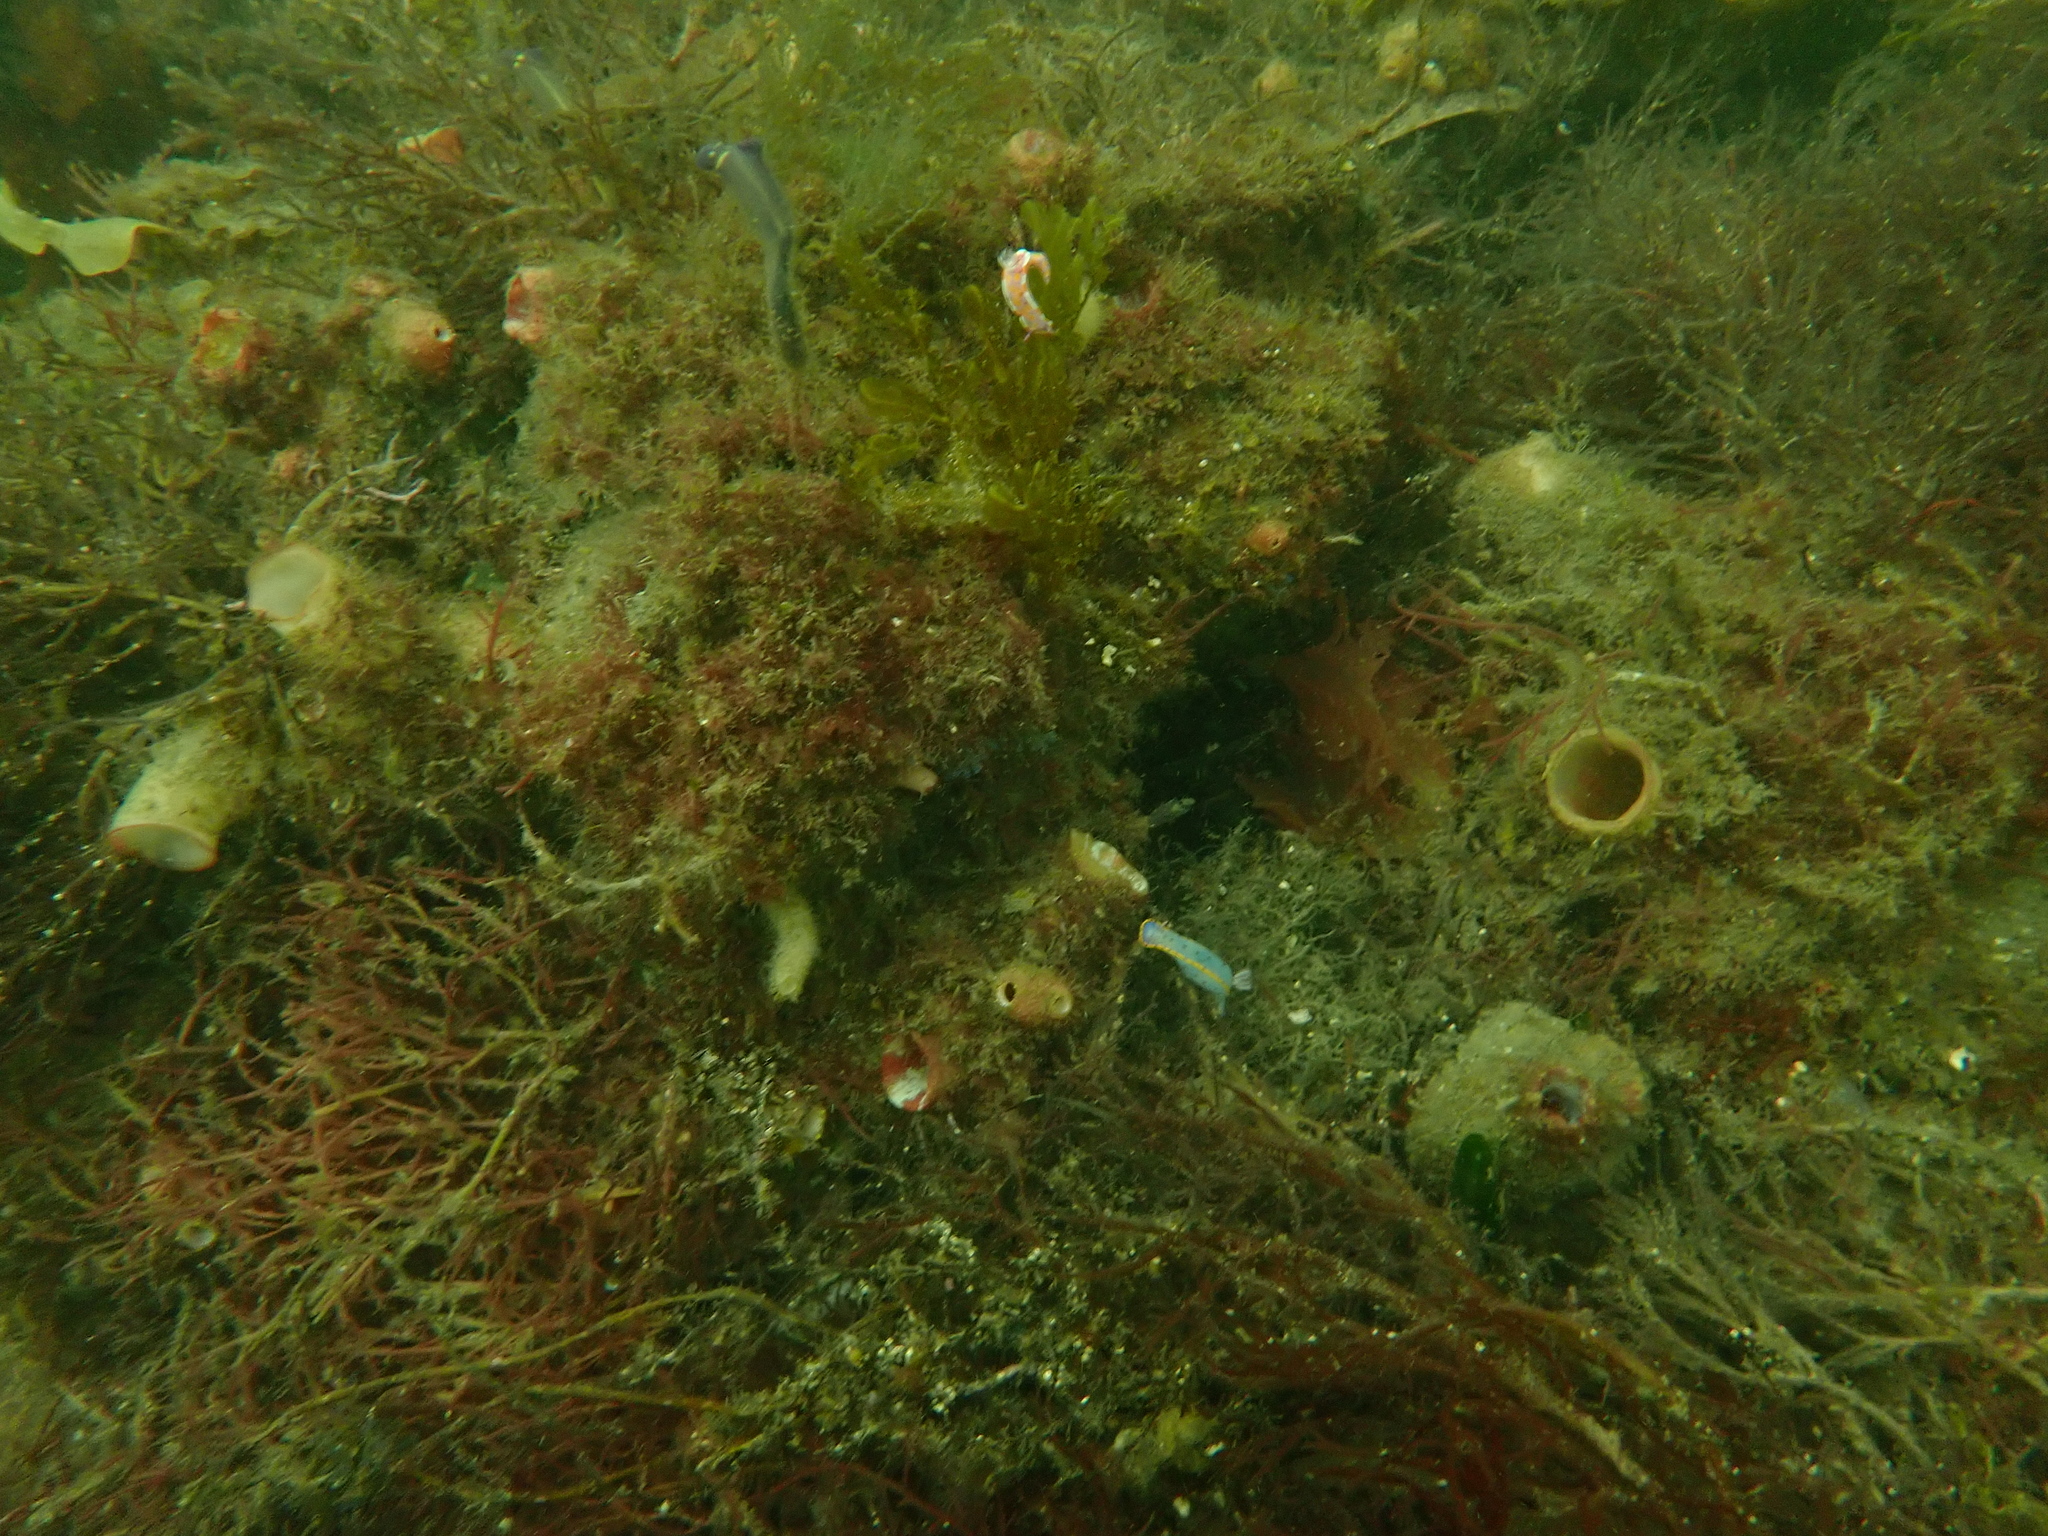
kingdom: Animalia
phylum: Mollusca
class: Gastropoda
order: Nudibranchia
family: Chromodorididae
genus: Ceratosoma
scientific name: Ceratosoma amoenum
